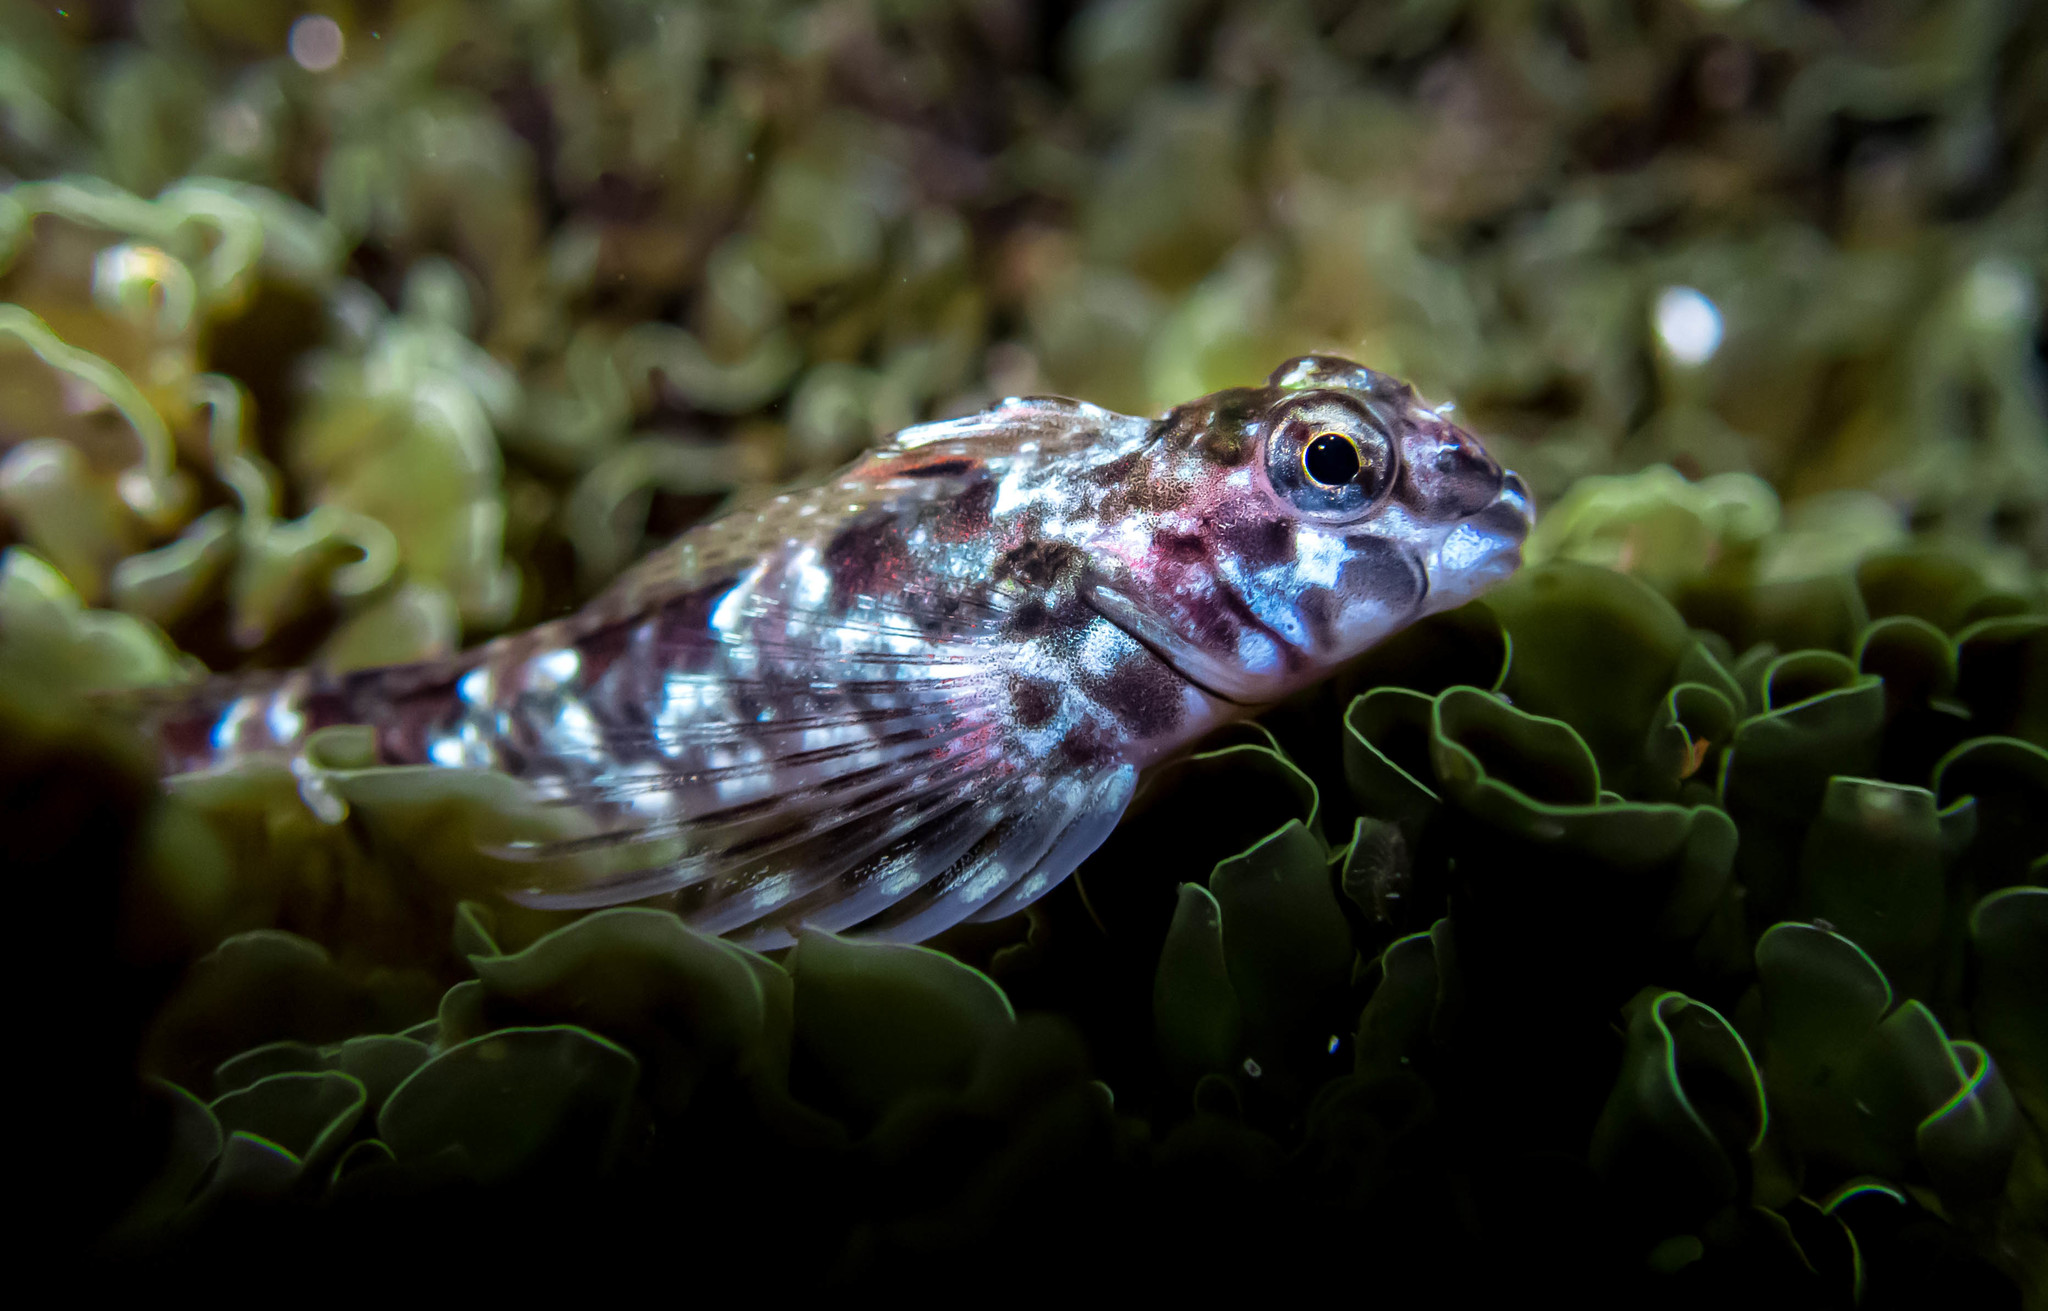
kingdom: Animalia
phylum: Chordata
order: Perciformes
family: Tripterygiidae
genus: Lepidoblennius
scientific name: Lepidoblennius haplodactylus
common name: Eastern jumping blenny
